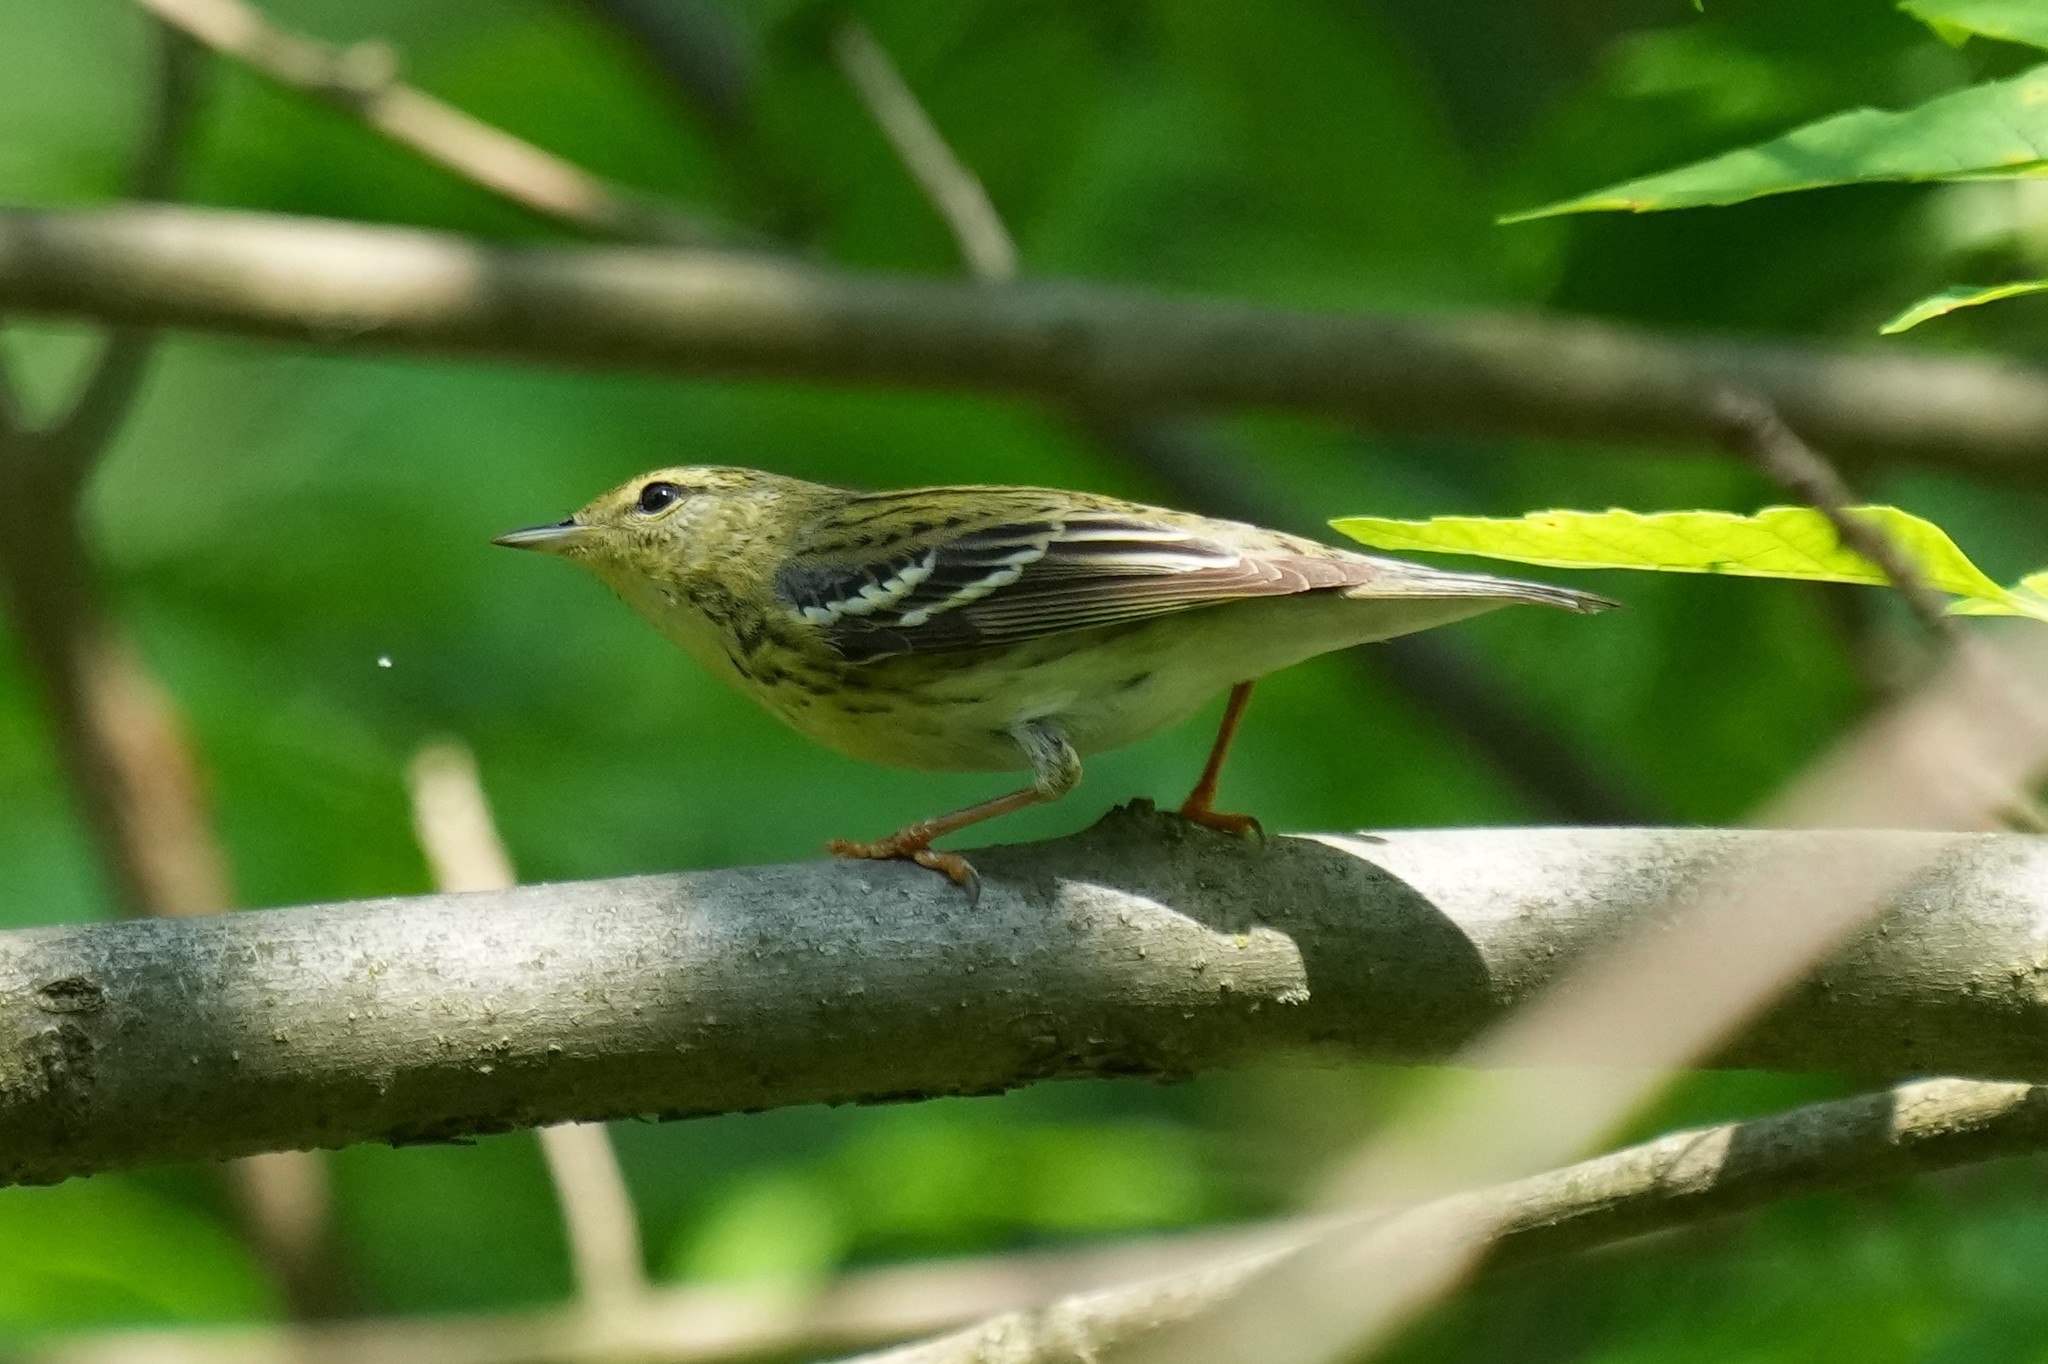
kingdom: Animalia
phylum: Chordata
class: Aves
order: Passeriformes
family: Parulidae
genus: Setophaga
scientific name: Setophaga striata
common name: Blackpoll warbler
